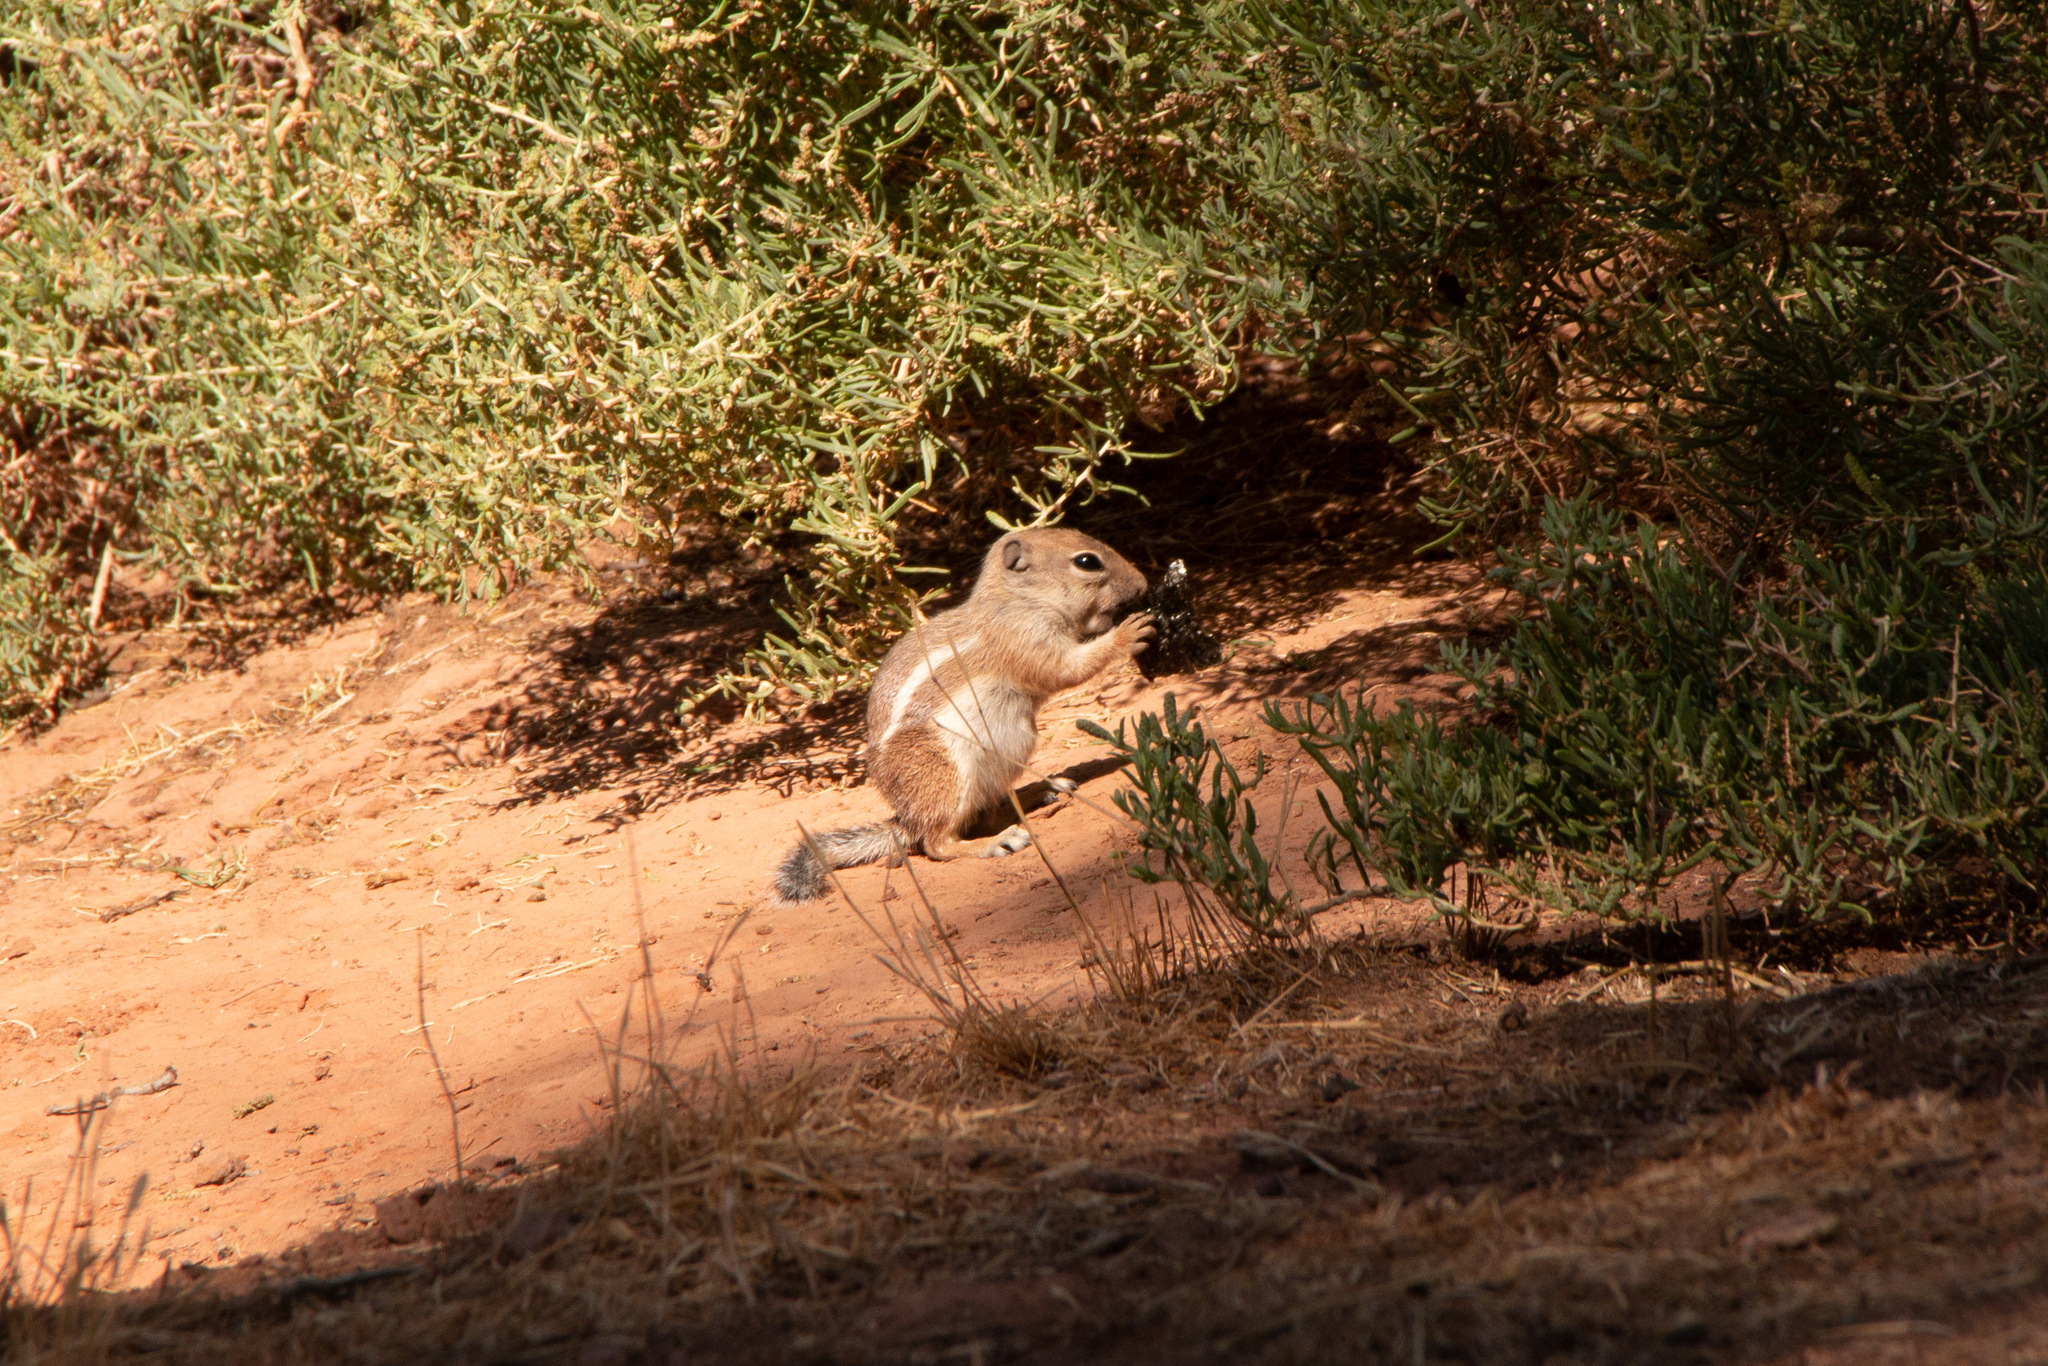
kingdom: Animalia
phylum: Chordata
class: Mammalia
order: Rodentia
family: Sciuridae
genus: Ammospermophilus
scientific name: Ammospermophilus leucurus
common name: White-tailed antelope squirrel
